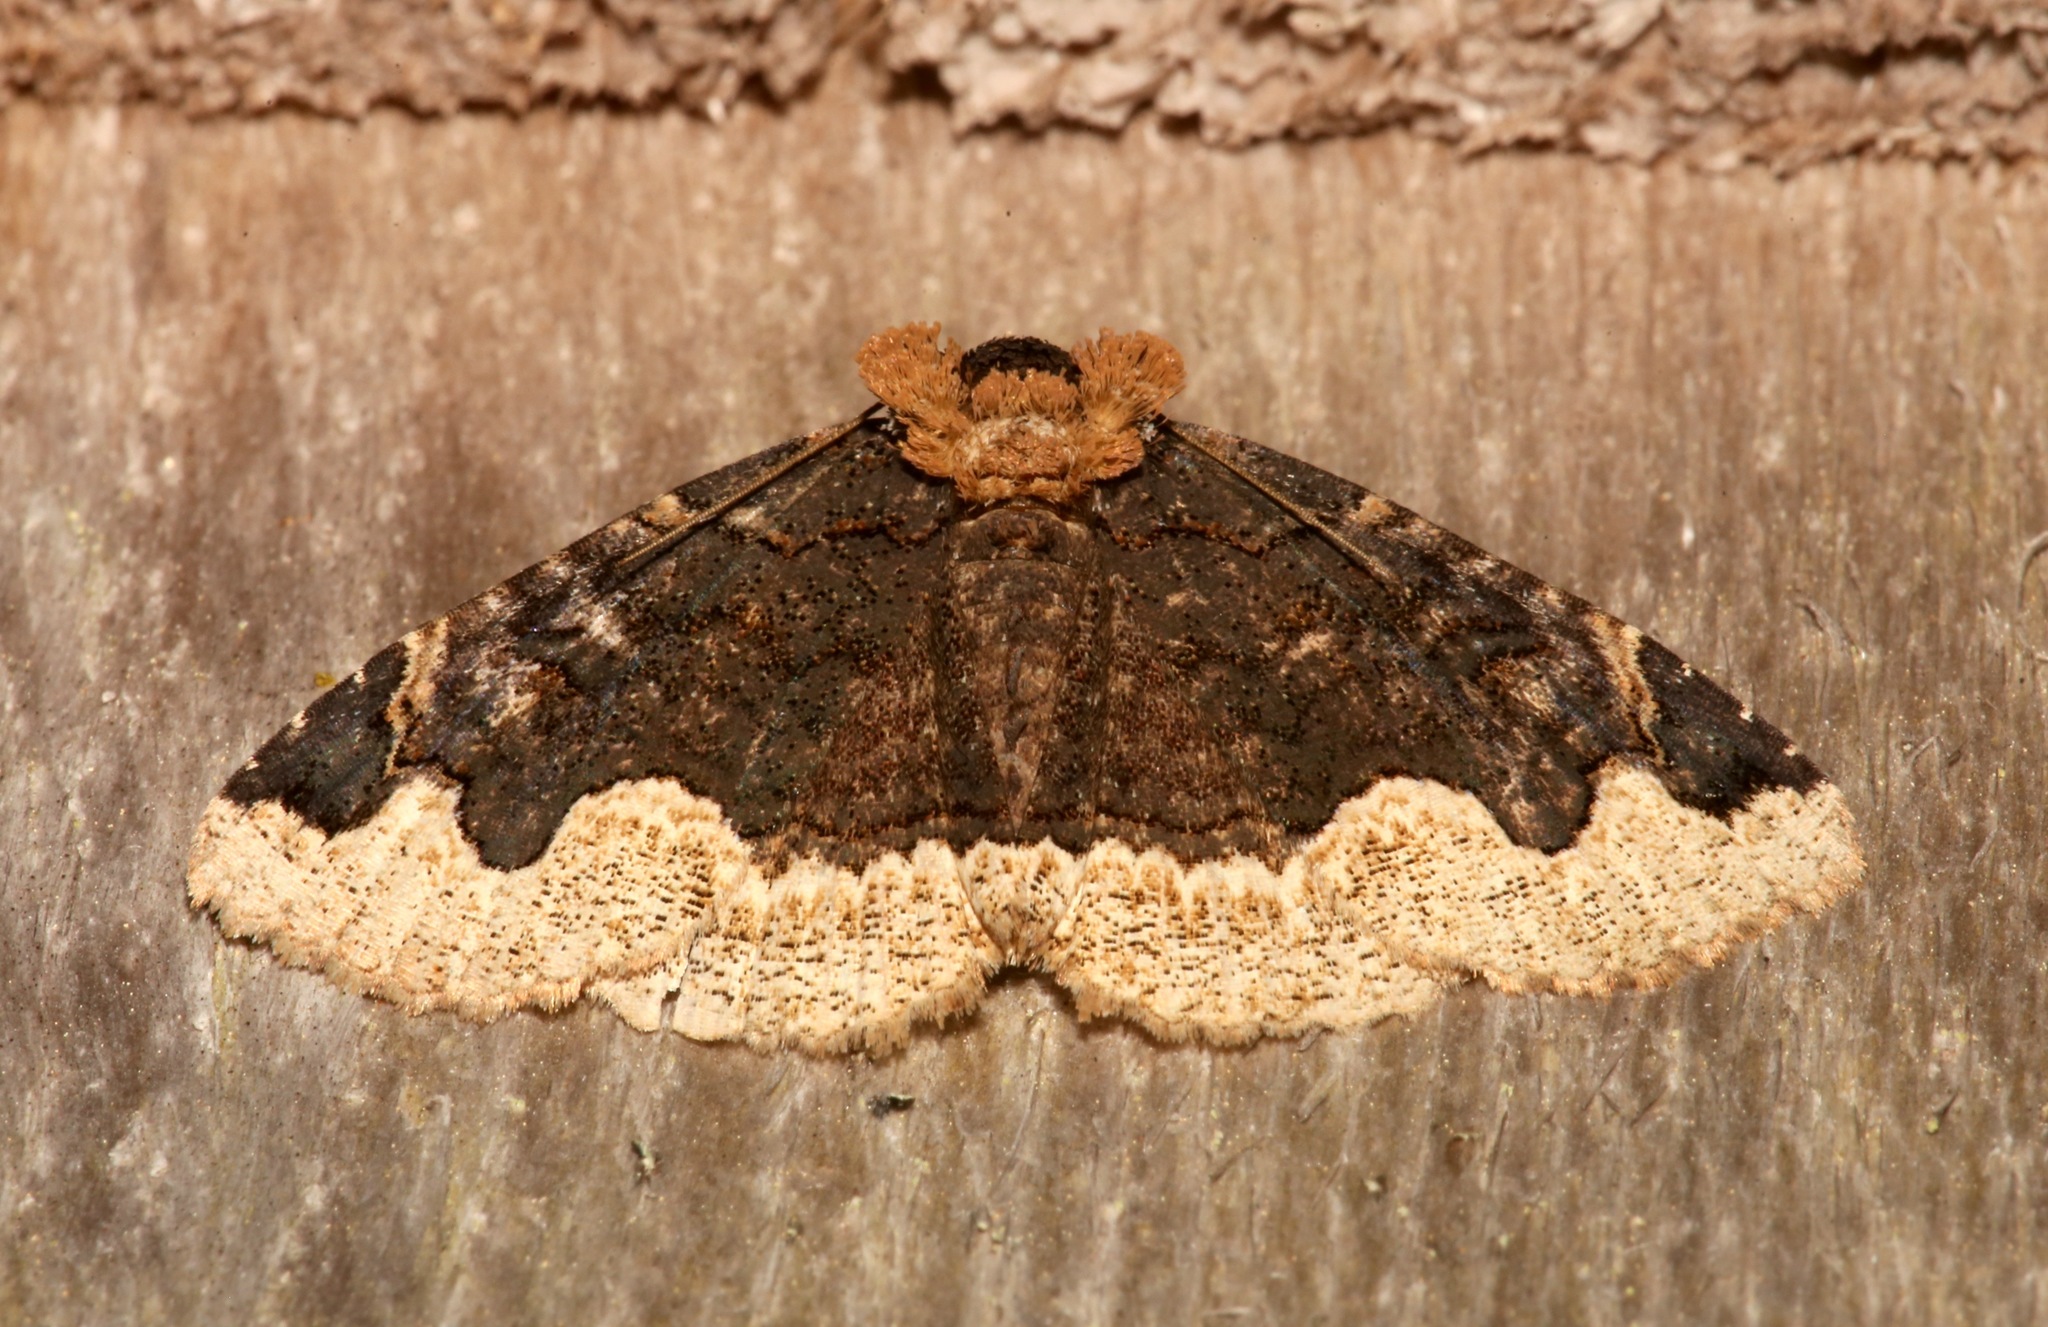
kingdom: Animalia
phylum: Arthropoda
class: Insecta
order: Lepidoptera
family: Erebidae
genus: Zale
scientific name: Zale horrida
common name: Horrid zale moth
